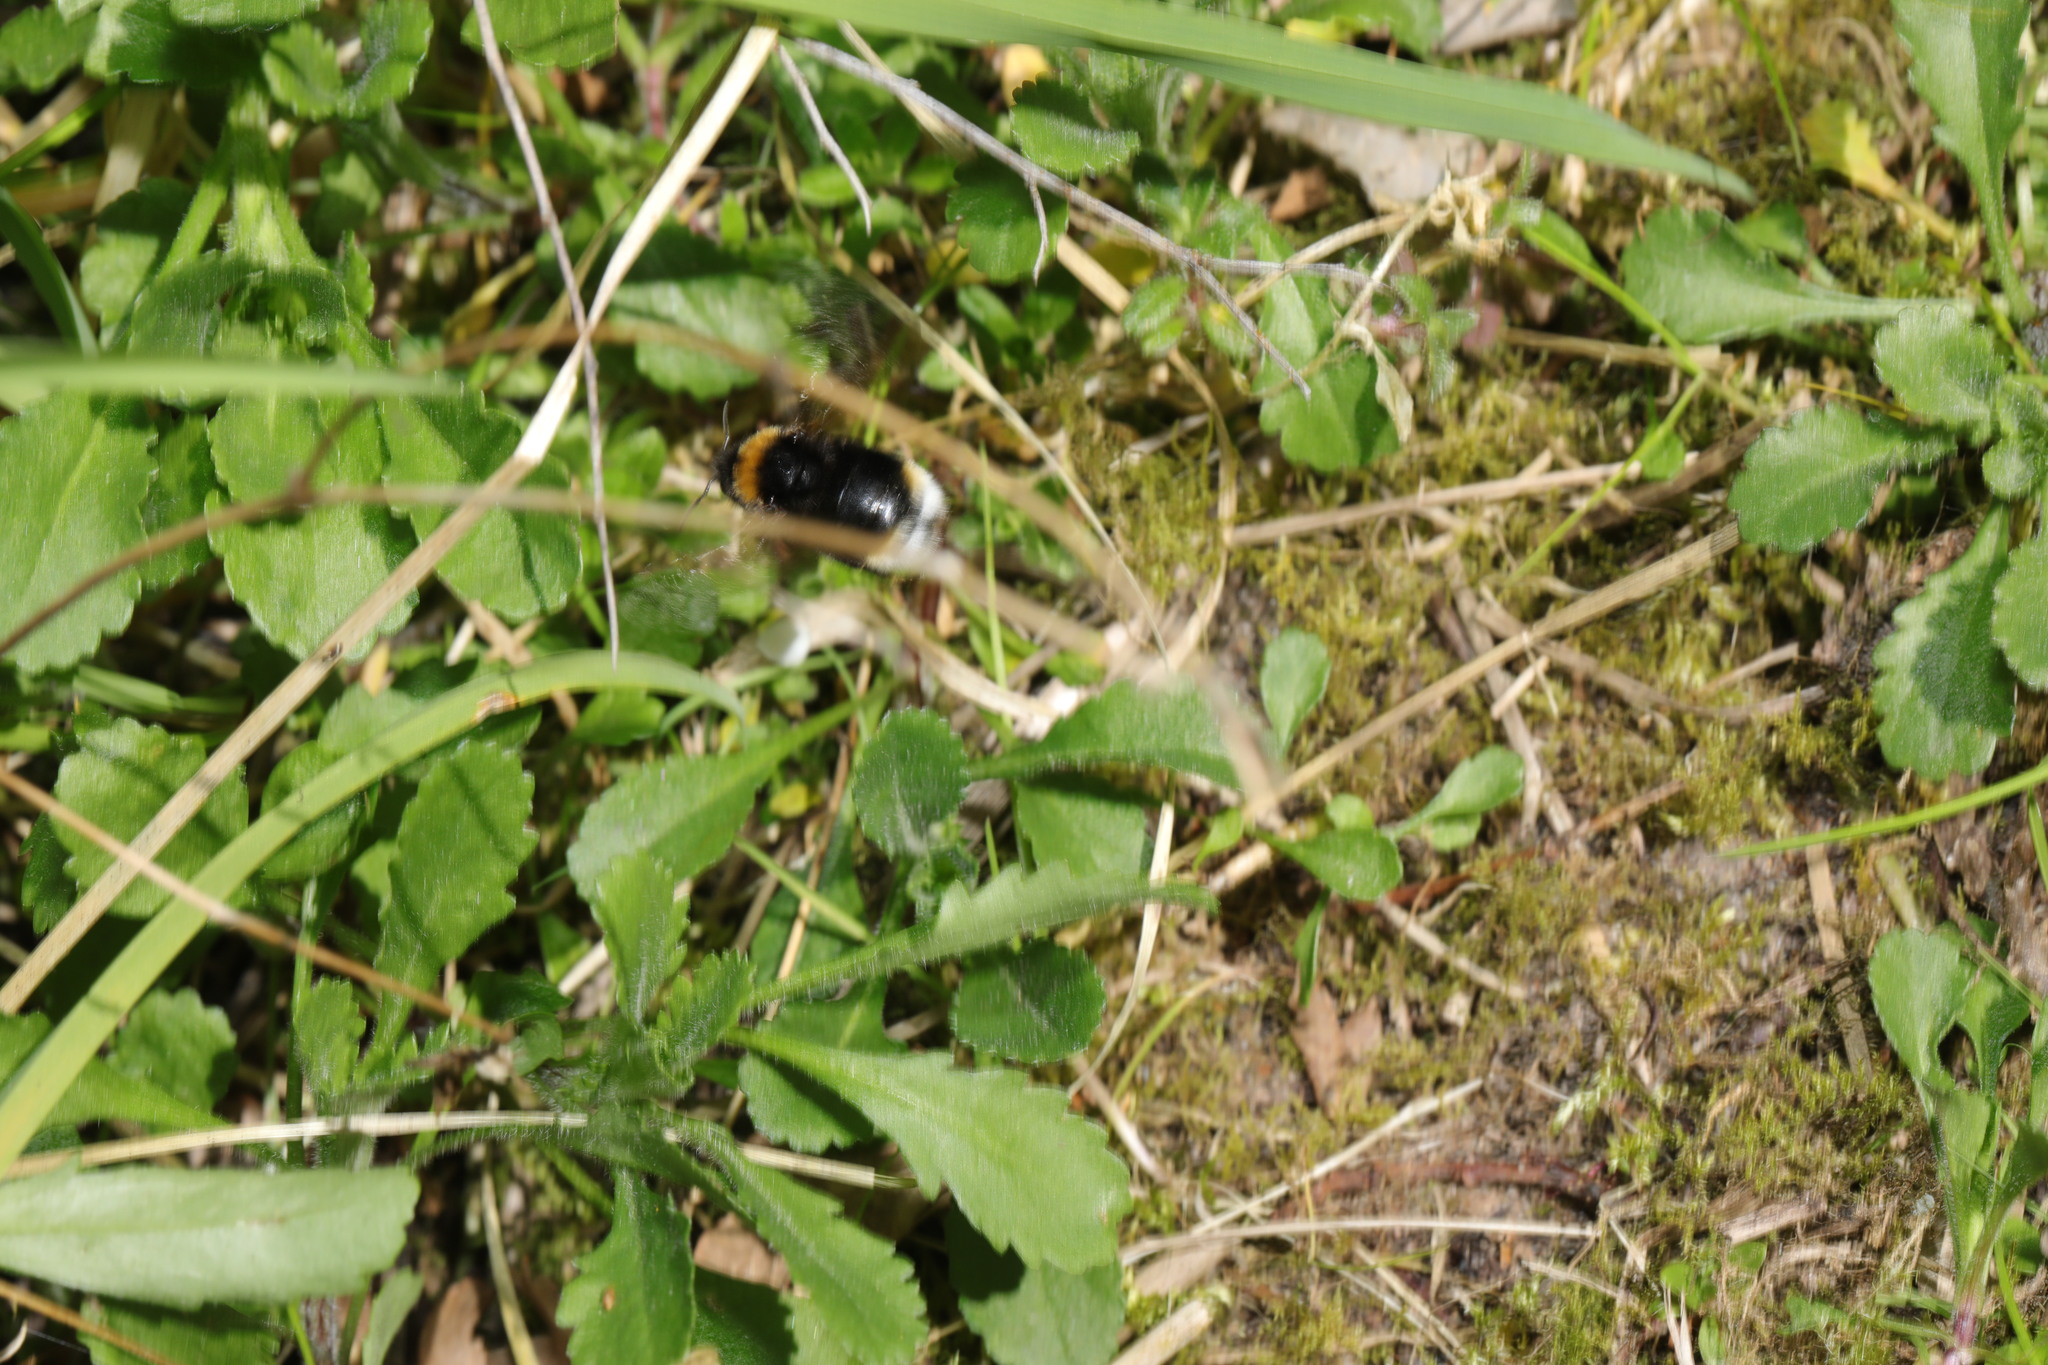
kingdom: Animalia
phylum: Arthropoda
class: Insecta
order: Hymenoptera
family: Apidae
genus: Bombus
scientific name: Bombus vestalis
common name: Vestal cuckoo bee
